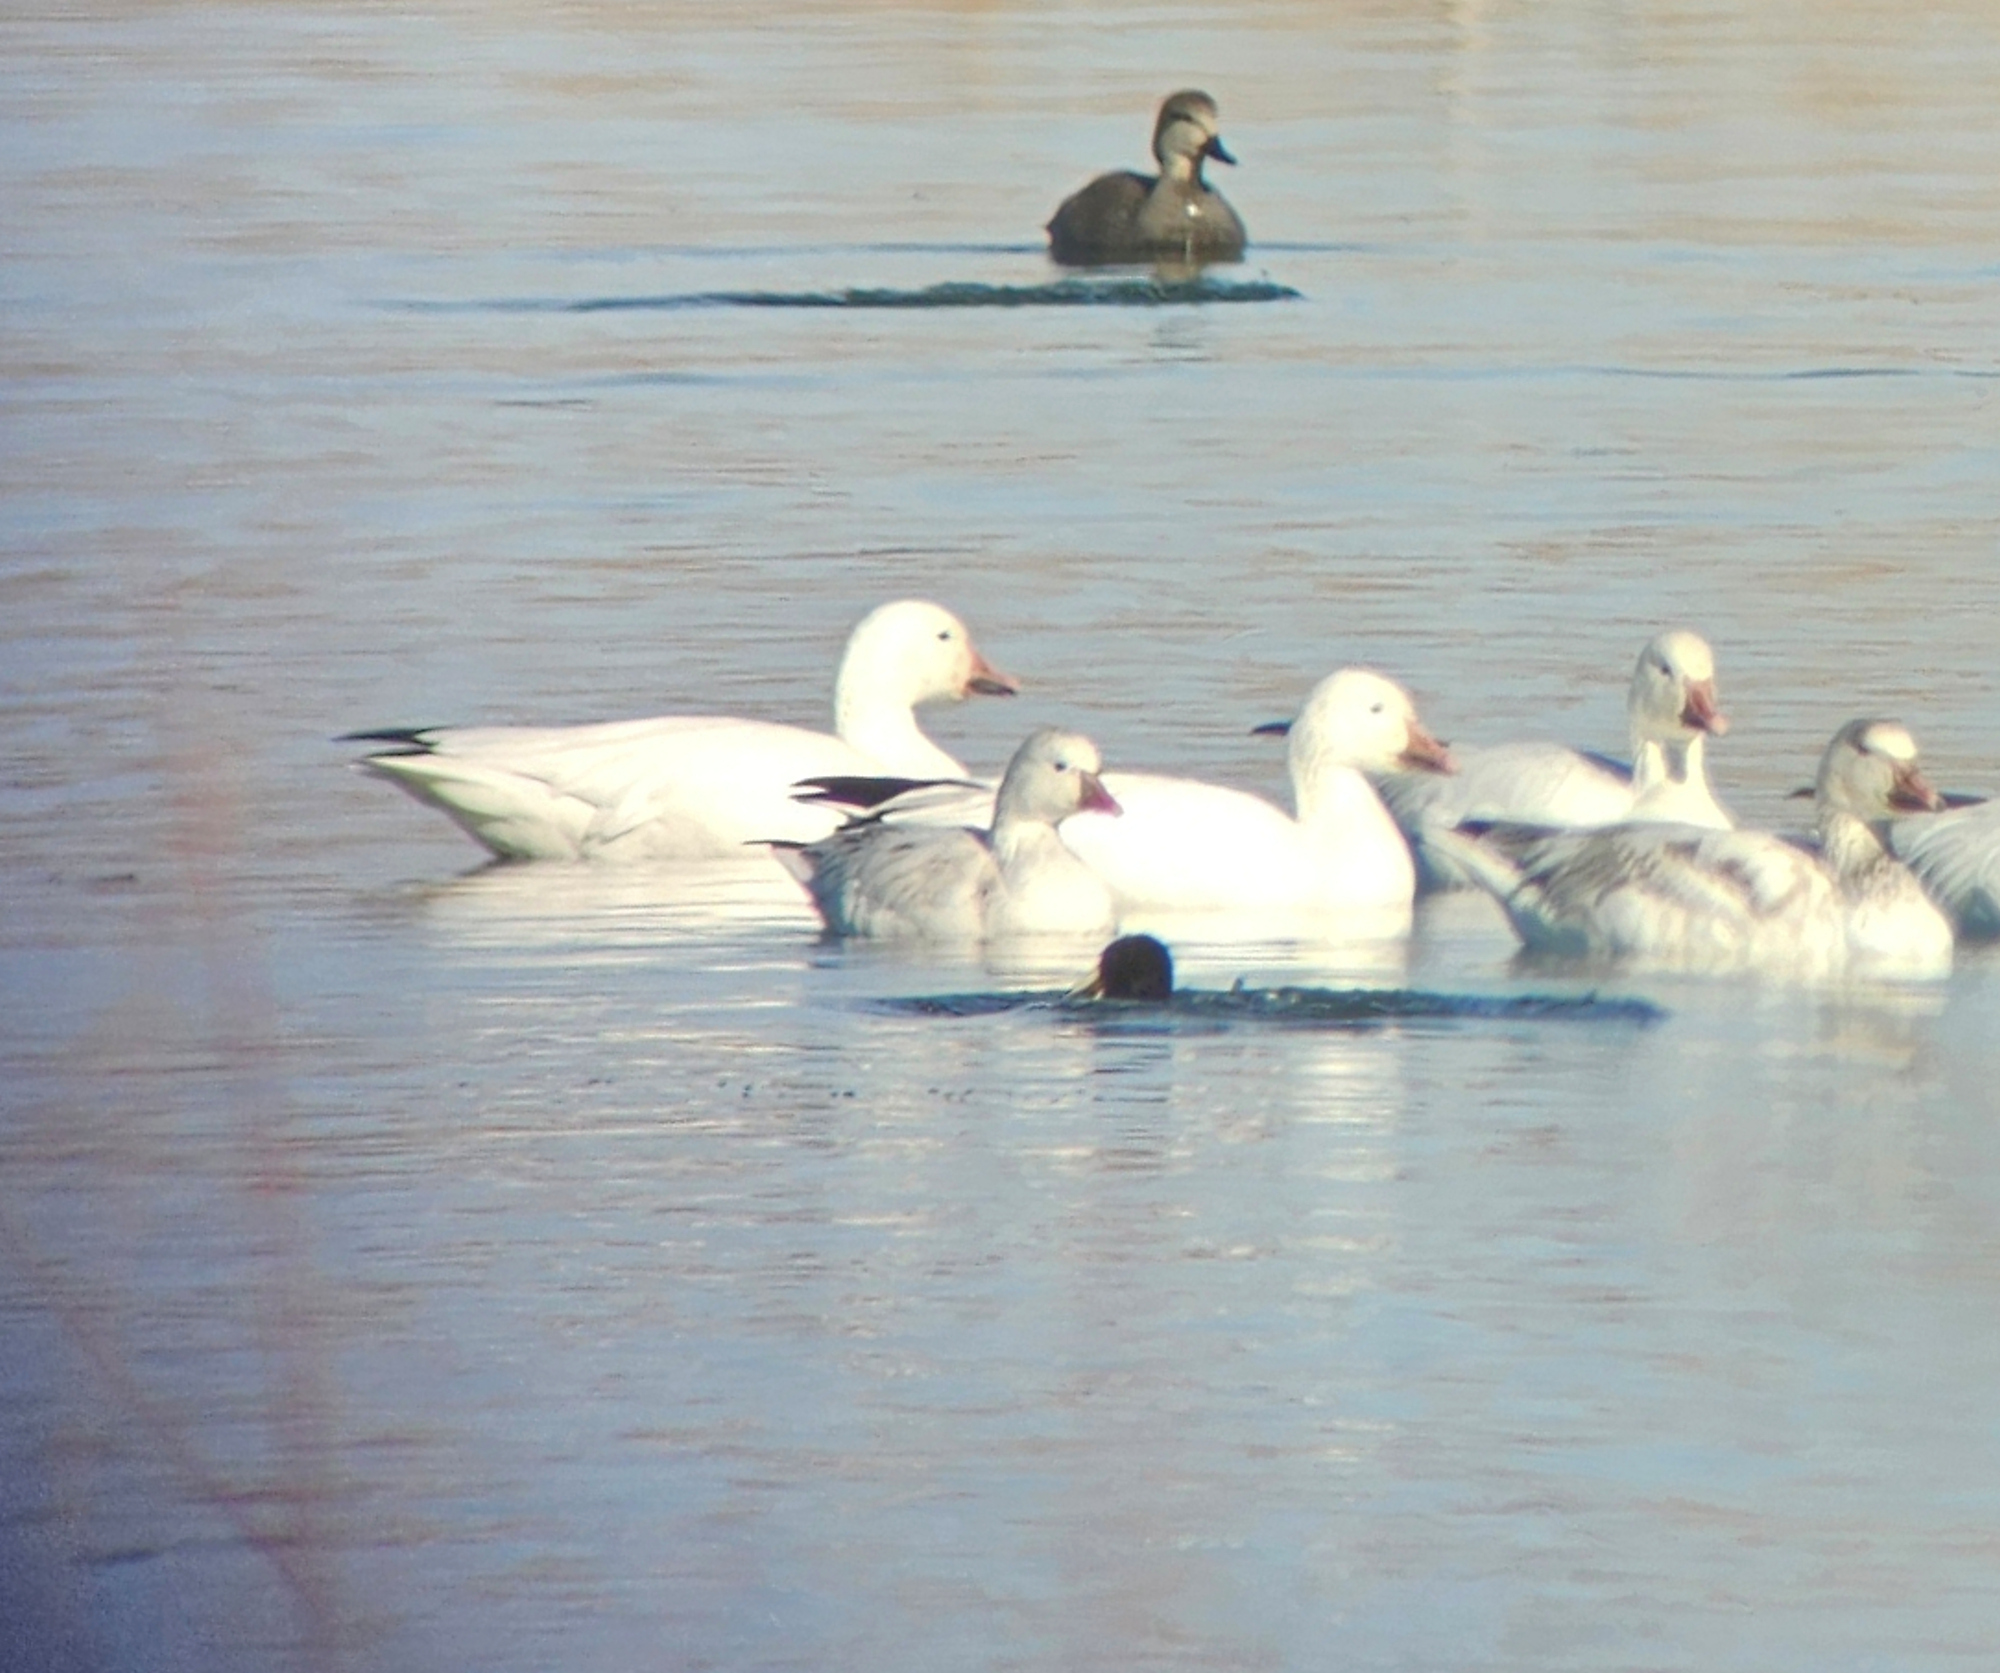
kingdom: Animalia
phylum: Chordata
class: Aves
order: Anseriformes
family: Anatidae
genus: Anser
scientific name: Anser rossii
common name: Ross's goose
